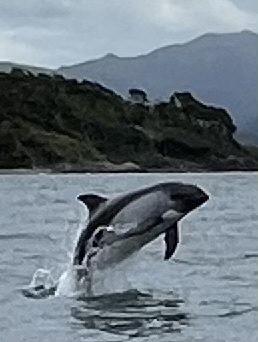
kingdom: Animalia
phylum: Chordata
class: Mammalia
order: Cetacea
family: Delphinidae
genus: Lagenorhynchus
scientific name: Lagenorhynchus australis
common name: Peale's dolphin
